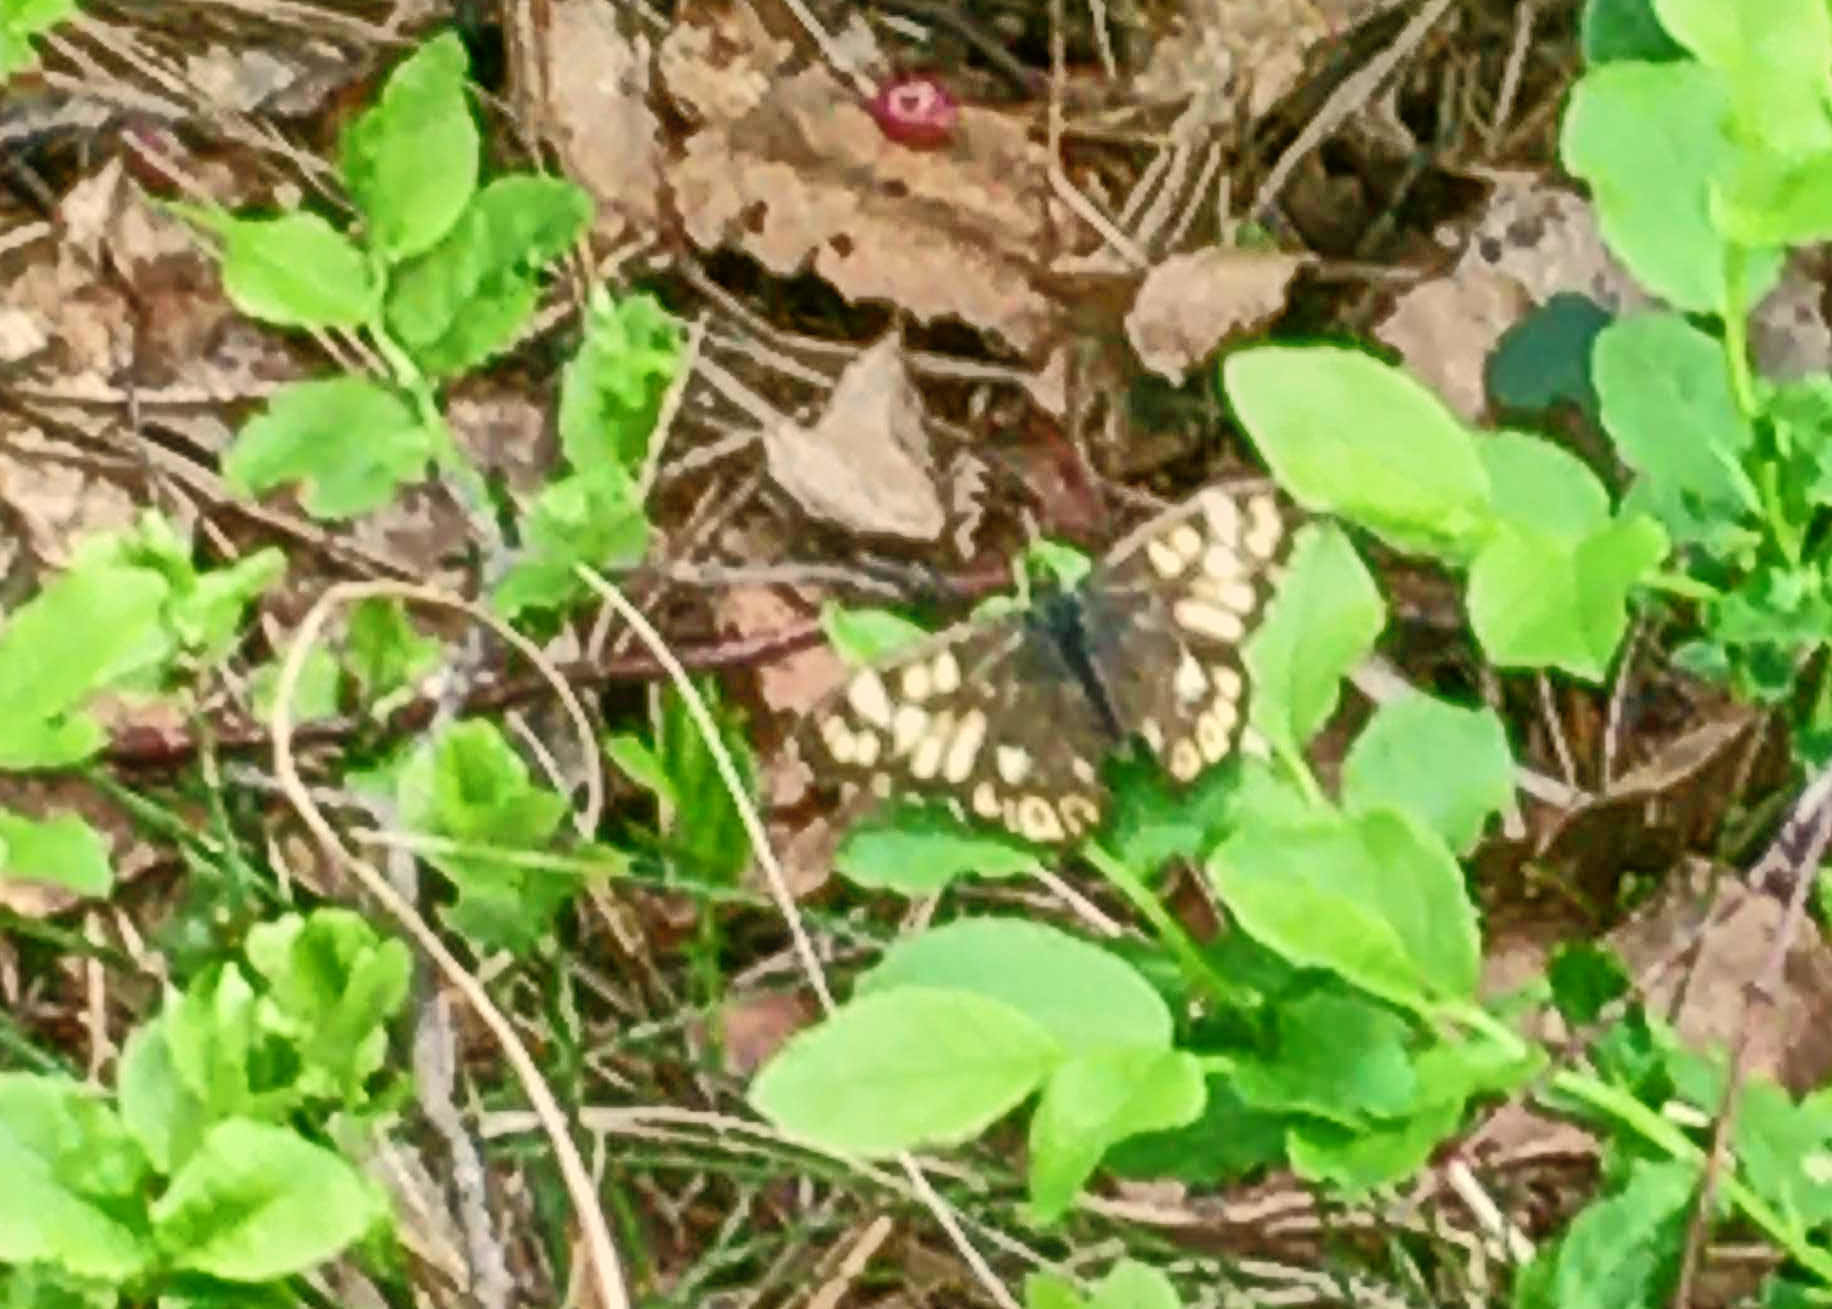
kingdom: Animalia
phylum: Arthropoda
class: Insecta
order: Lepidoptera
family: Nymphalidae
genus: Pararge
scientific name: Pararge aegeria
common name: Speckled wood
